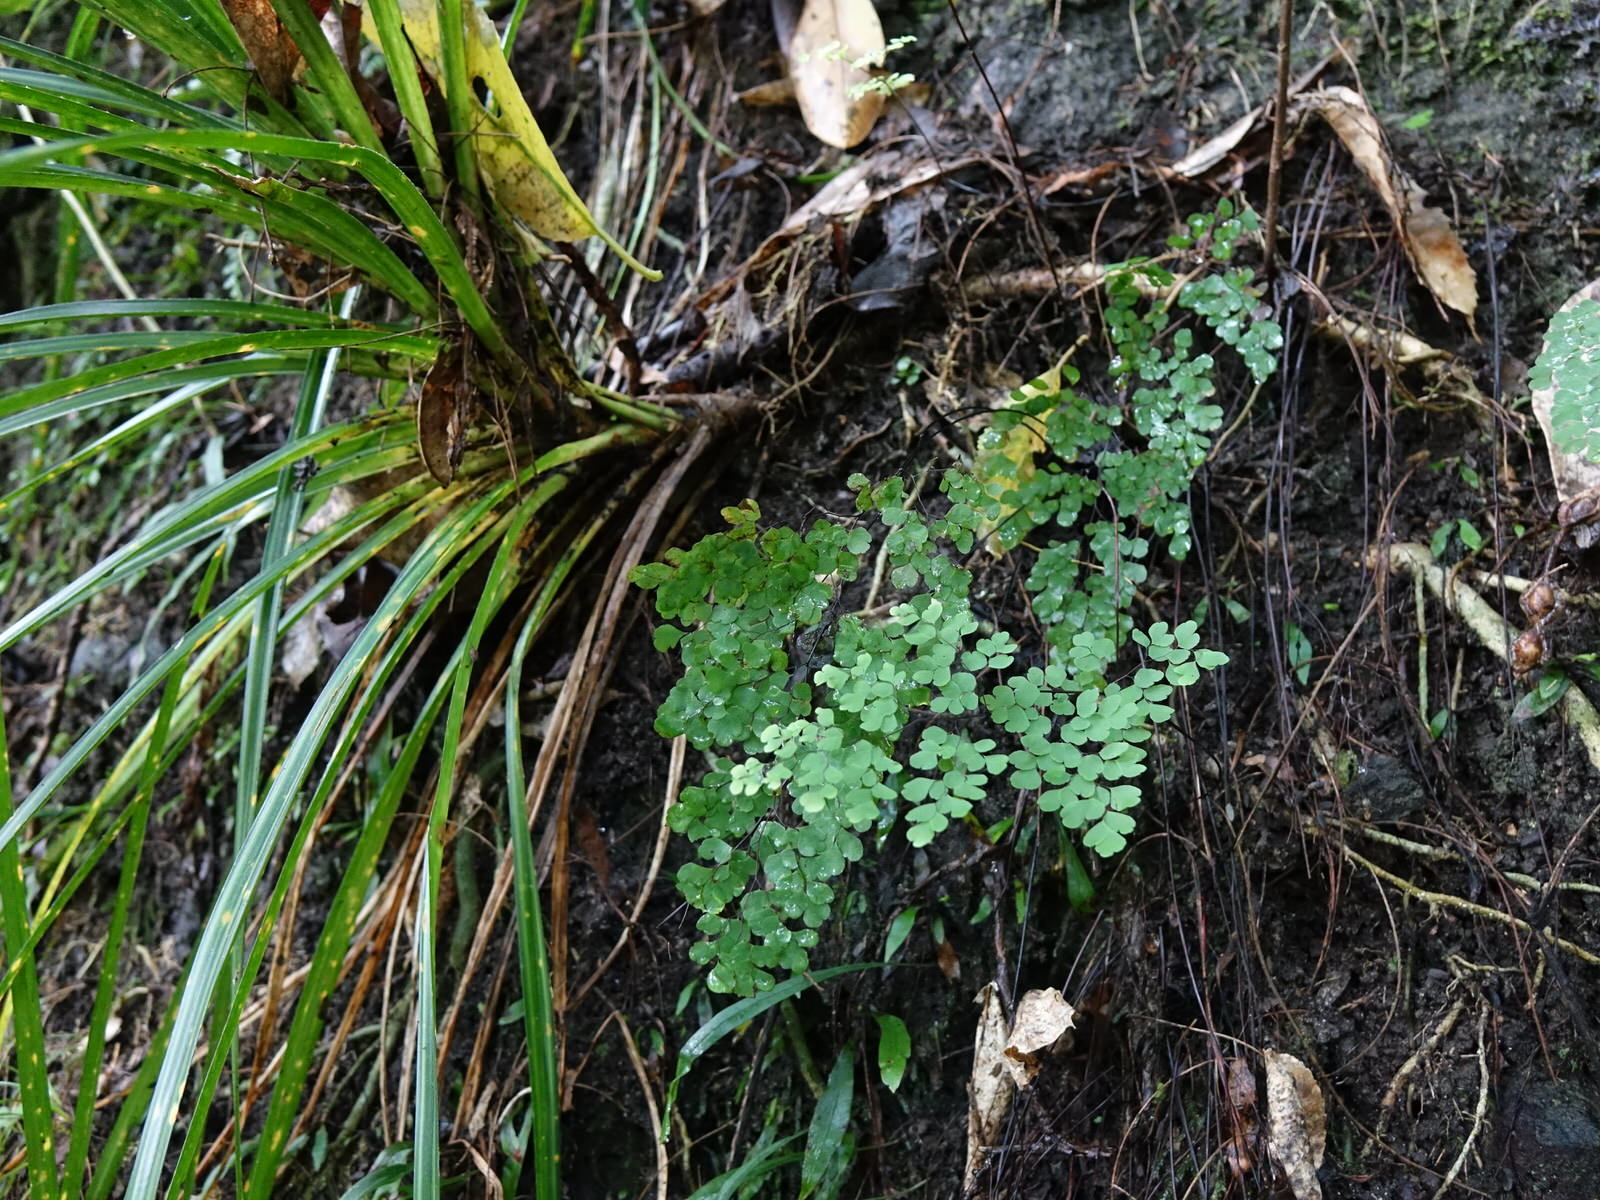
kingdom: Plantae
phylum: Tracheophyta
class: Polypodiopsida
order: Polypodiales
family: Pteridaceae
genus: Adiantum
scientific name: Adiantum raddianum
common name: Delta maidenhair fern
